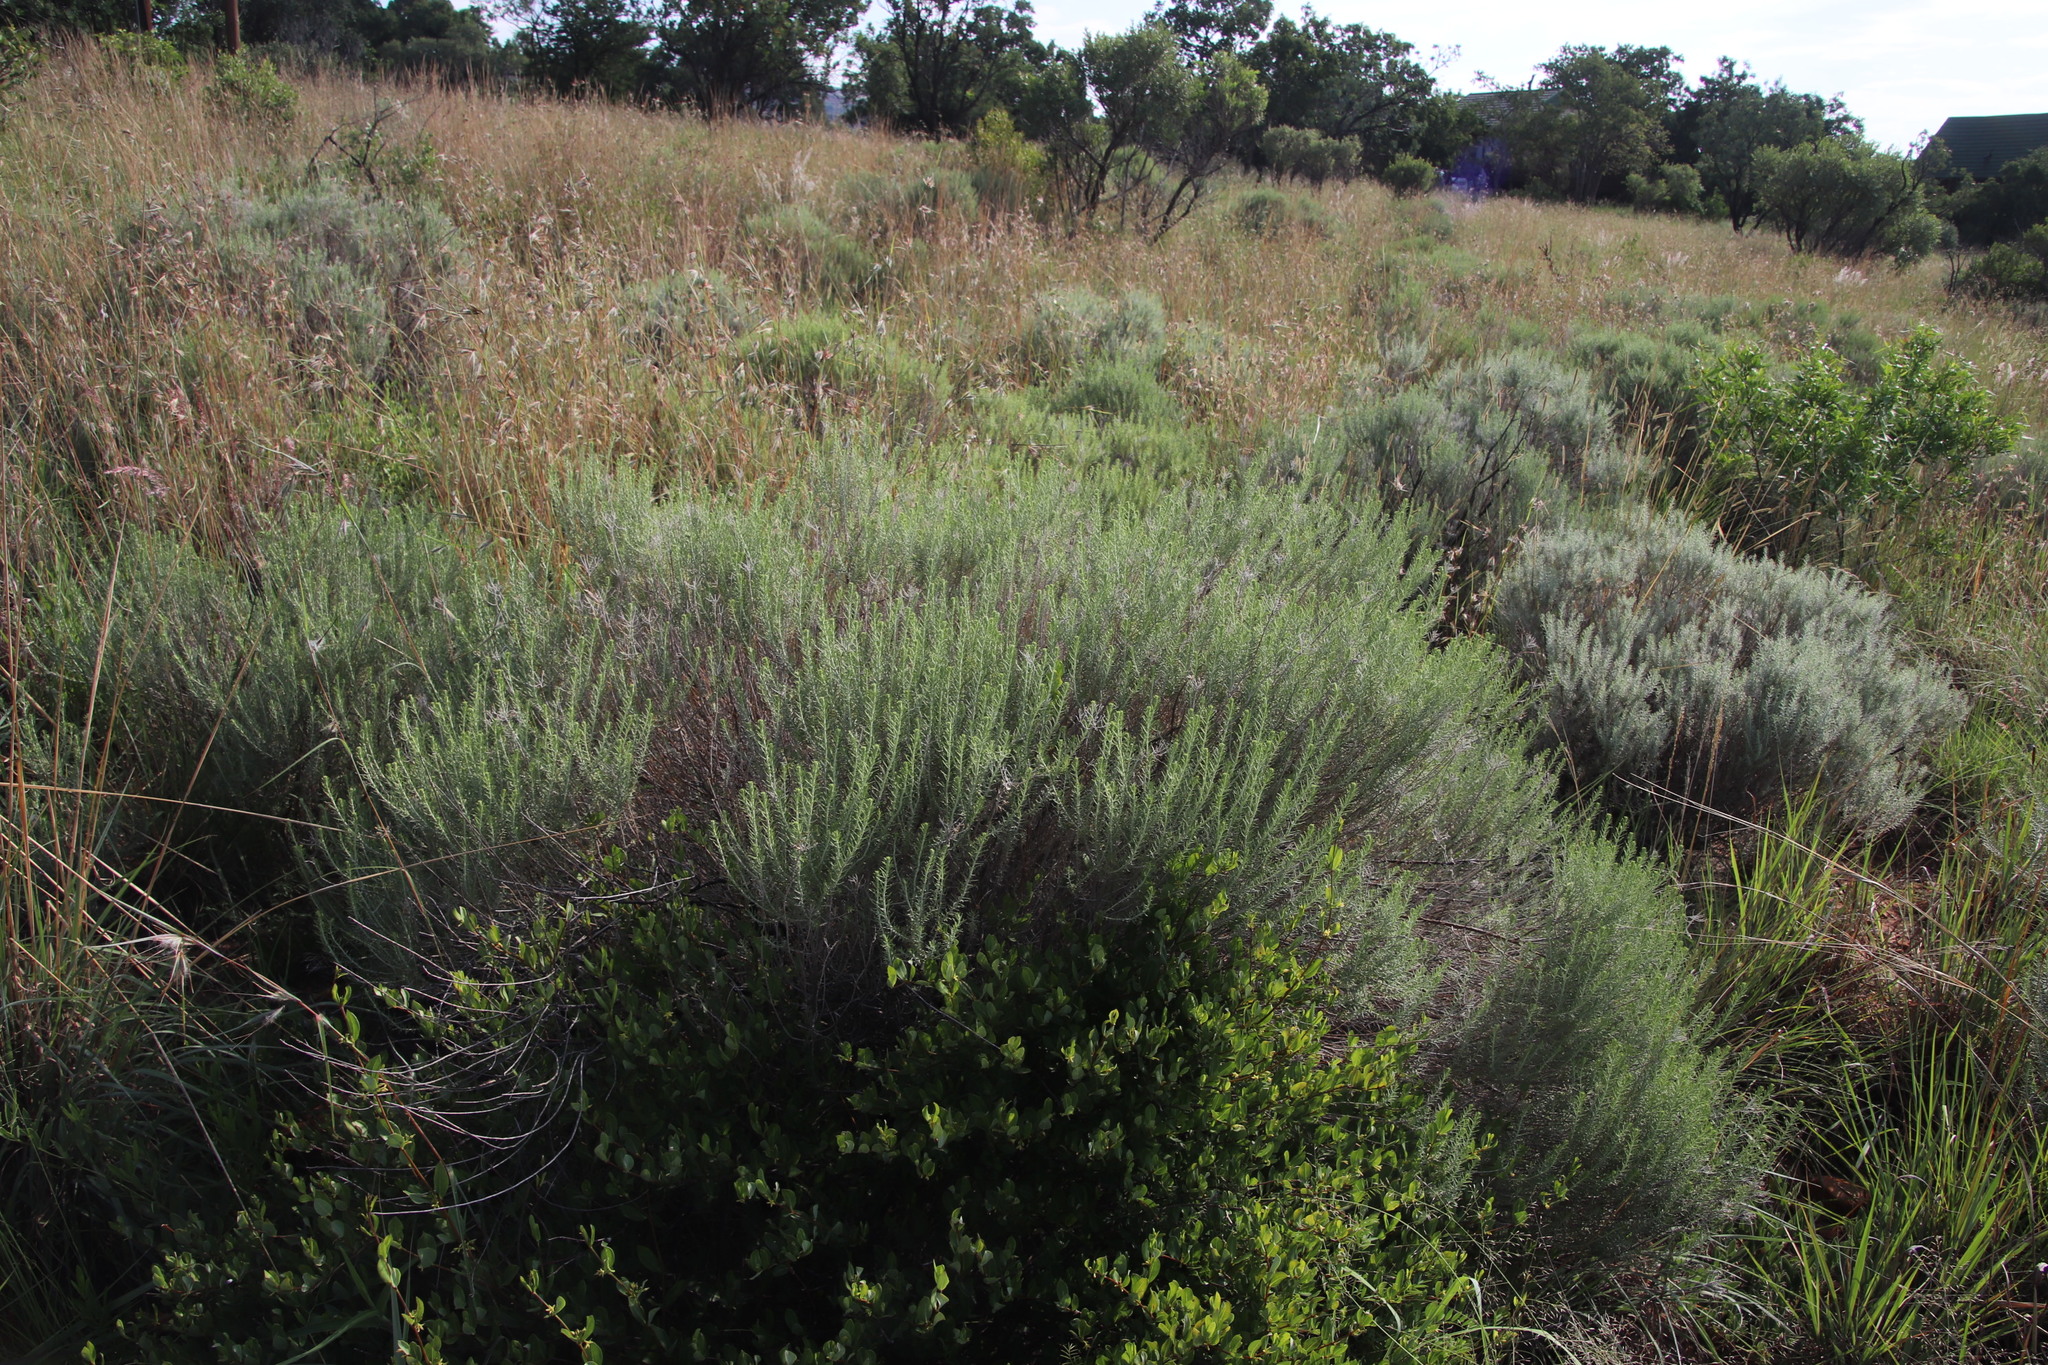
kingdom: Plantae
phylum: Tracheophyta
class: Magnoliopsida
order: Asterales
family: Asteraceae
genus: Helichrysum
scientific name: Helichrysum kraussii
